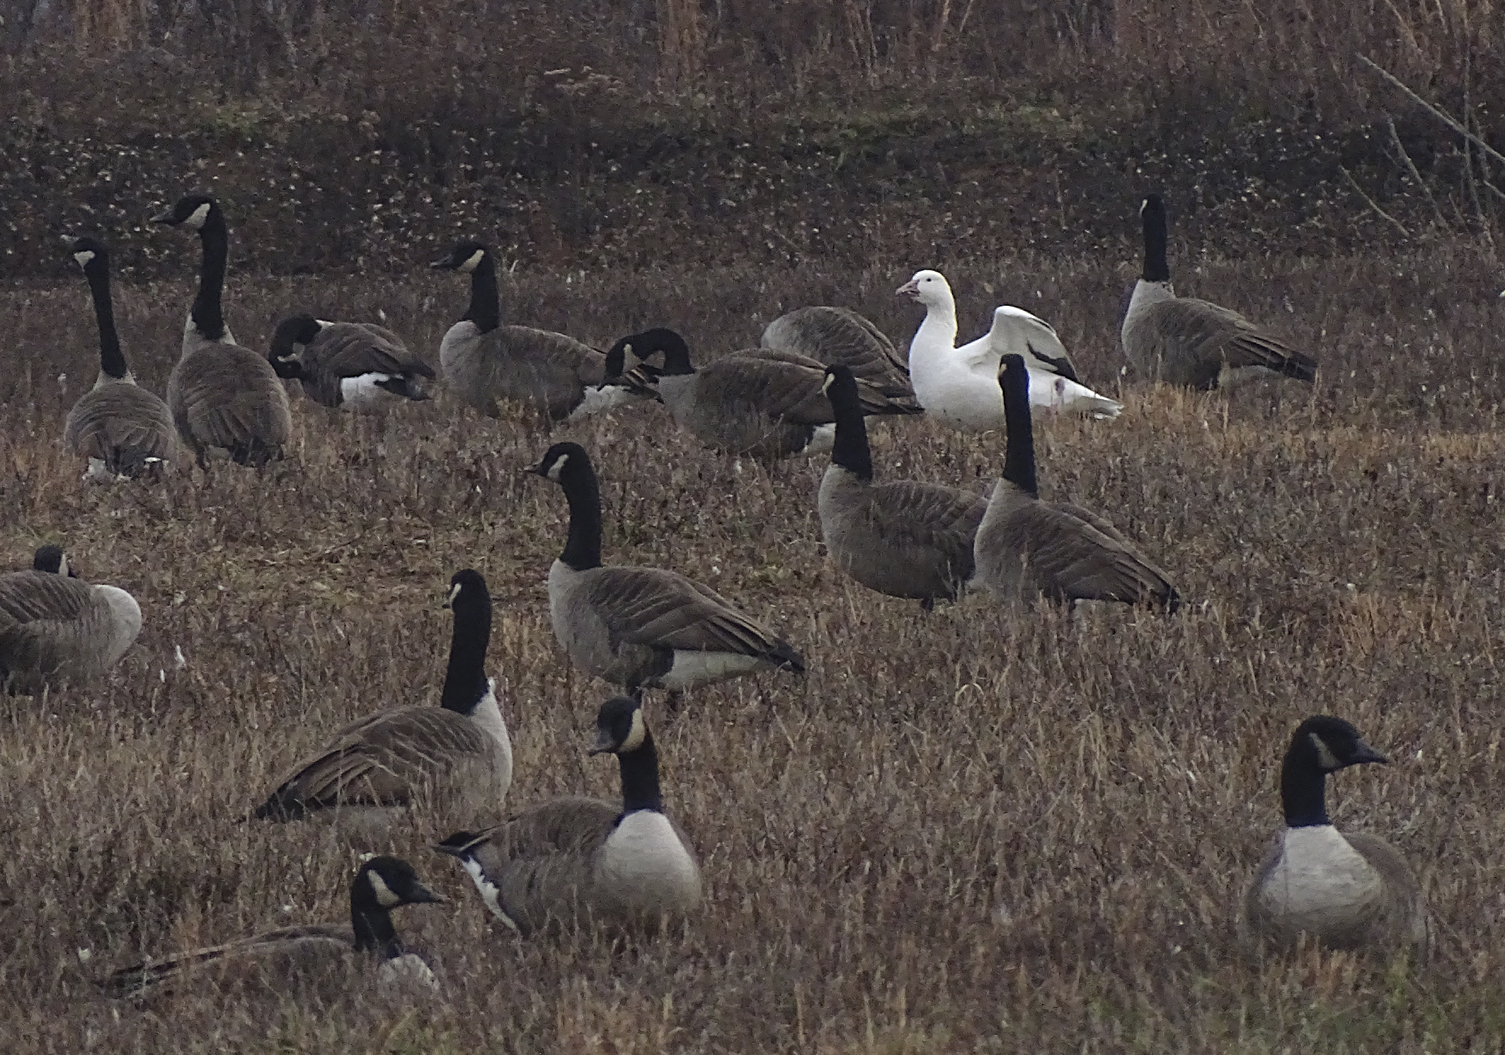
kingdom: Animalia
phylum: Chordata
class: Aves
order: Anseriformes
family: Anatidae
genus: Anser
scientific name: Anser caerulescens
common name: Snow goose
